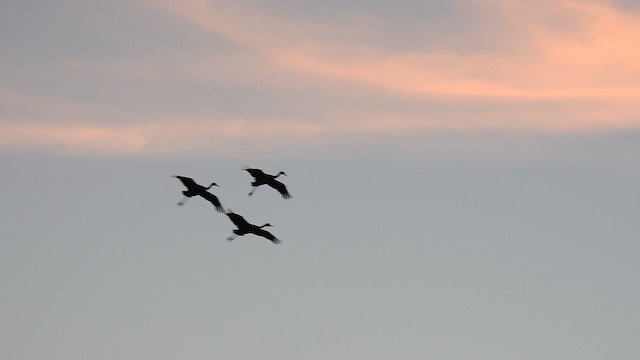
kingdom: Animalia
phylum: Chordata
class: Aves
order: Gruiformes
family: Gruidae
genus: Grus
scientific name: Grus canadensis
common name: Sandhill crane
